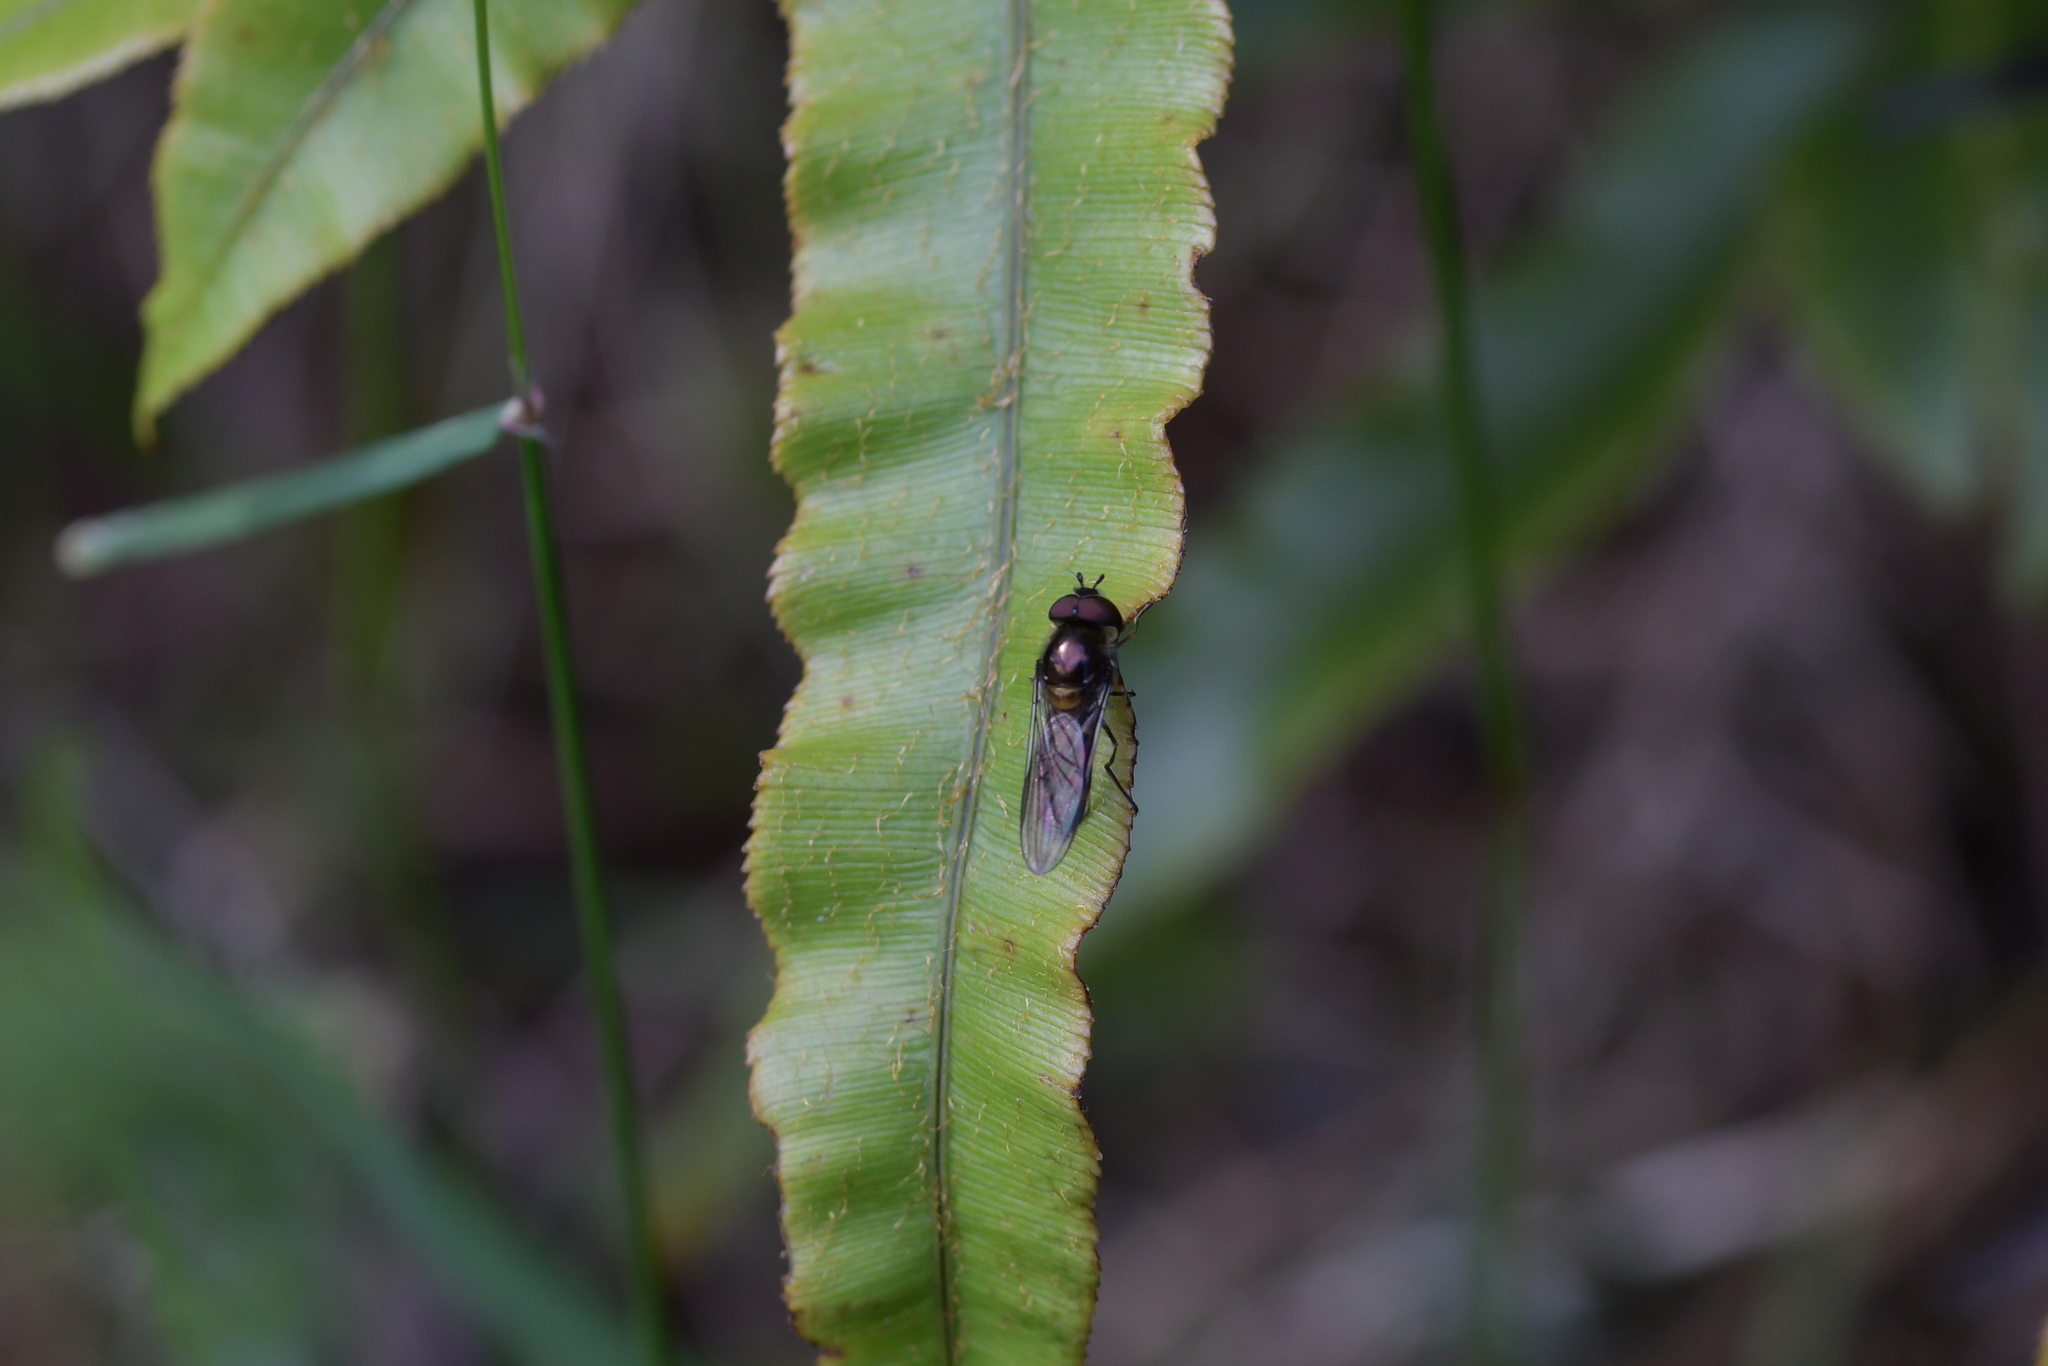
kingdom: Animalia
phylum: Arthropoda
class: Insecta
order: Diptera
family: Syrphidae
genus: Melangyna
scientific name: Melangyna novaezelandiae
